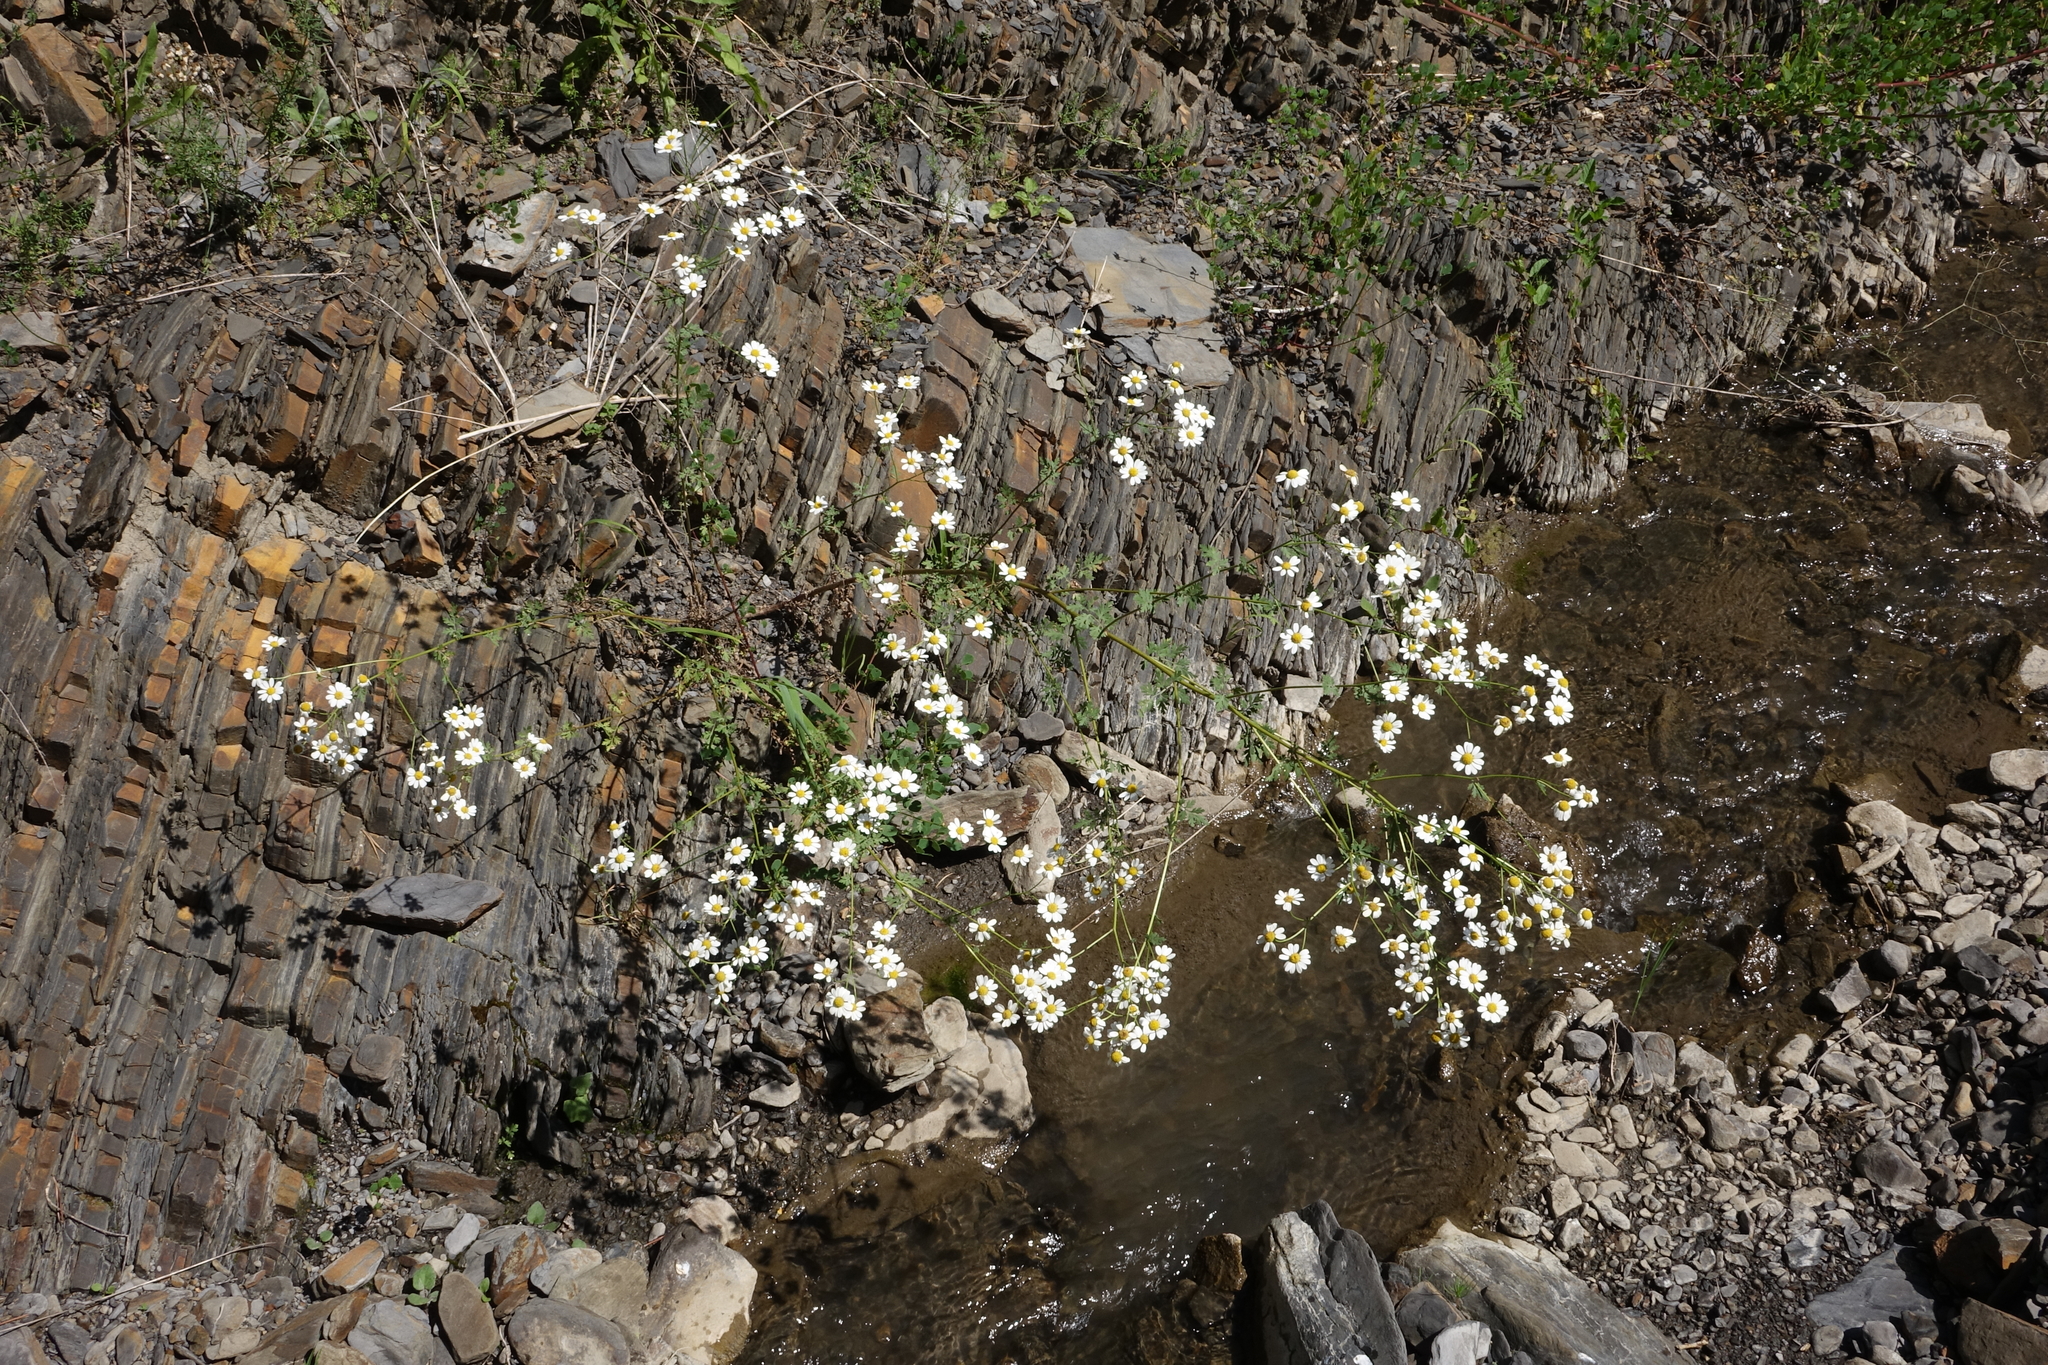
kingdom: Plantae
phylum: Tracheophyta
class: Magnoliopsida
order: Asterales
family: Asteraceae
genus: Tanacetum
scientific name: Tanacetum partheniifolium
